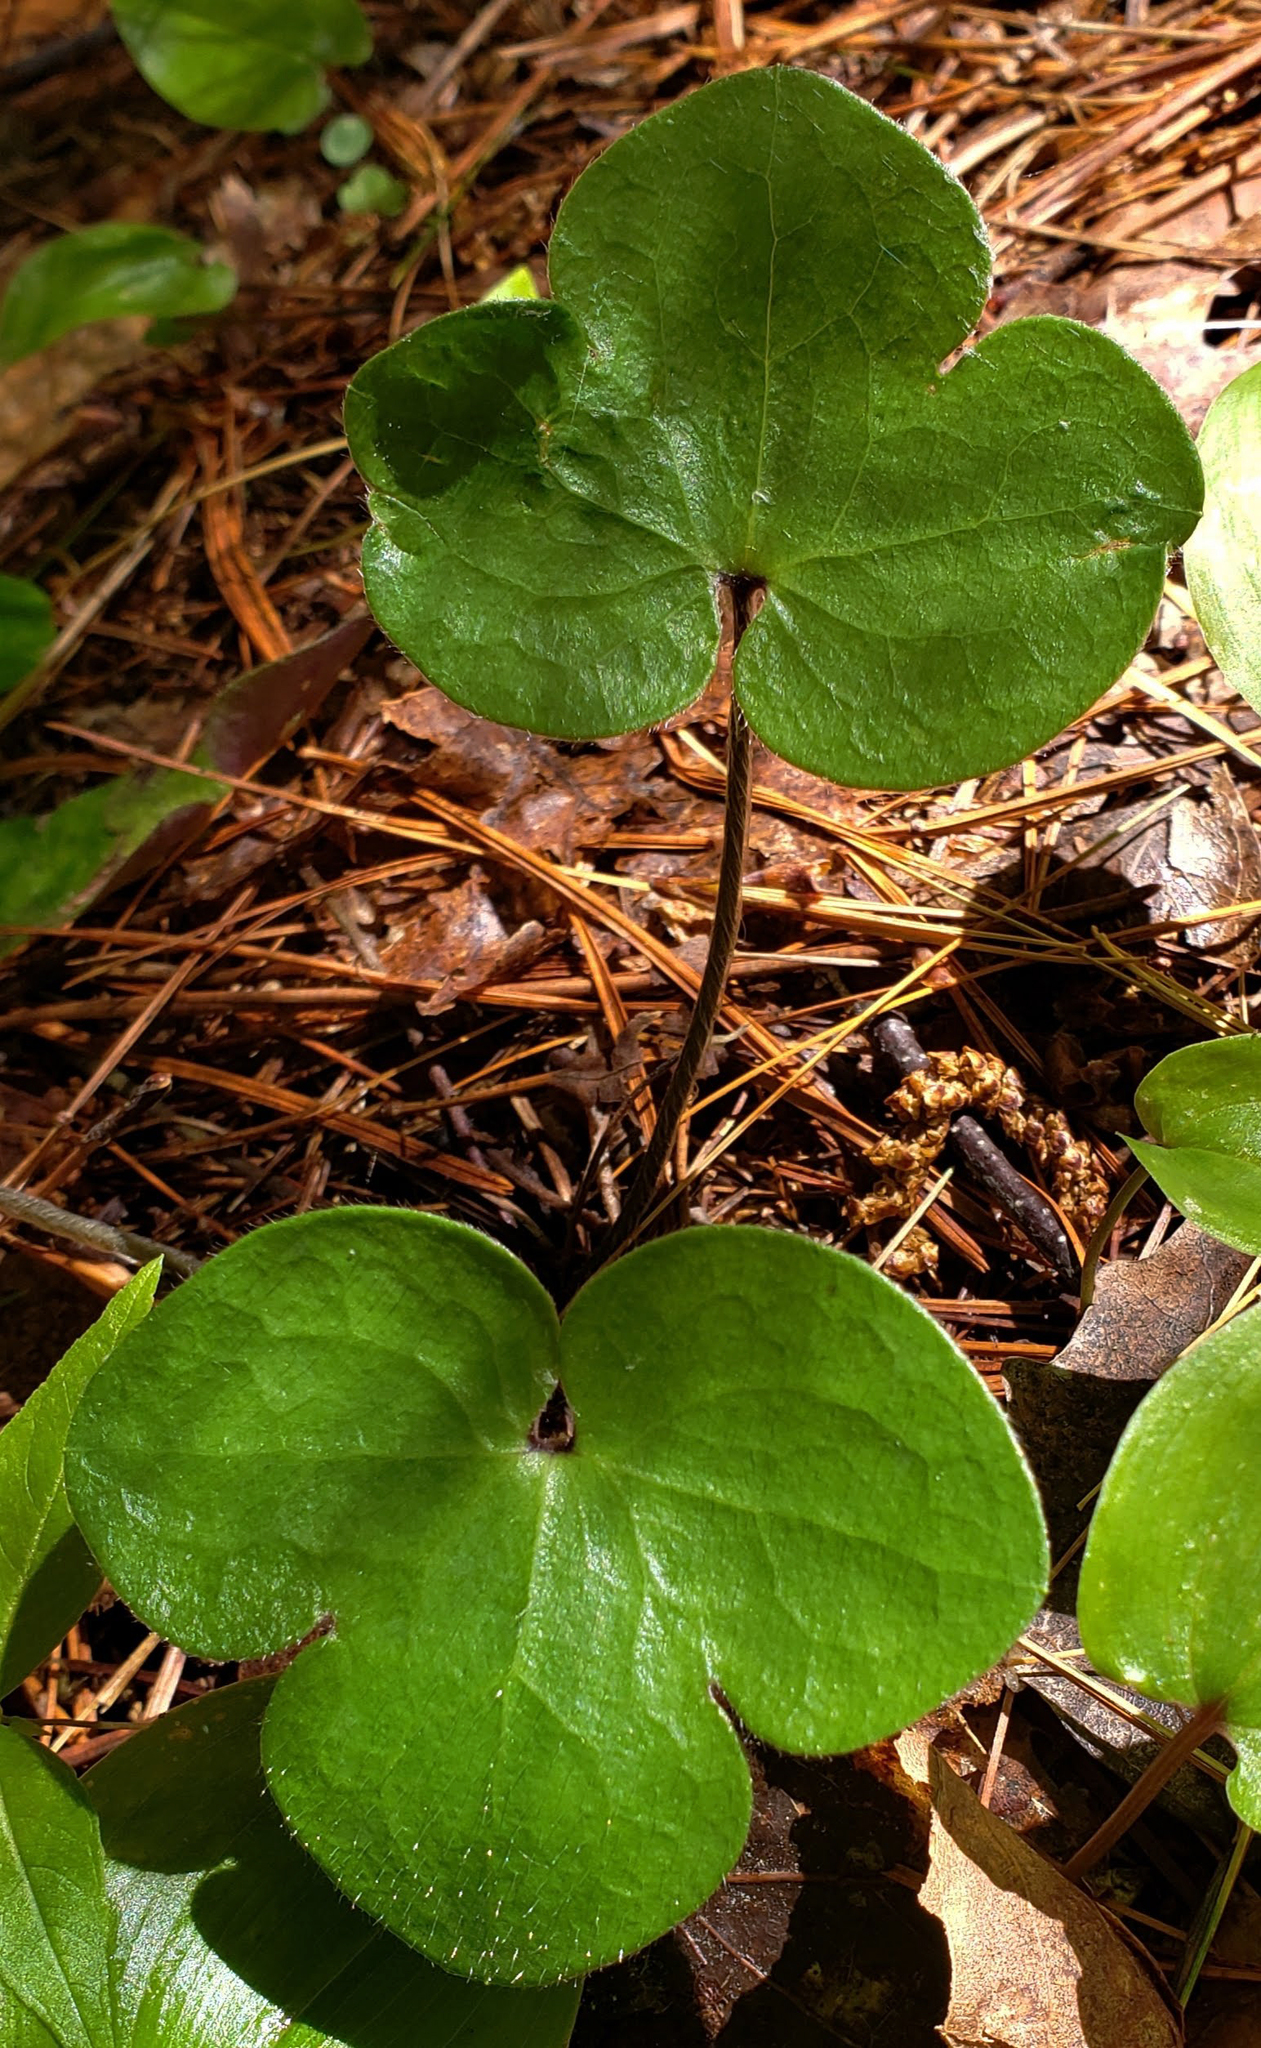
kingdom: Plantae
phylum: Tracheophyta
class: Magnoliopsida
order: Ranunculales
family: Ranunculaceae
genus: Hepatica
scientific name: Hepatica americana
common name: American hepatica
